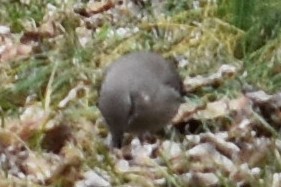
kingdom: Animalia
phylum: Chordata
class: Aves
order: Passeriformes
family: Mimidae
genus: Mimus
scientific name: Mimus polyglottos
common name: Northern mockingbird
